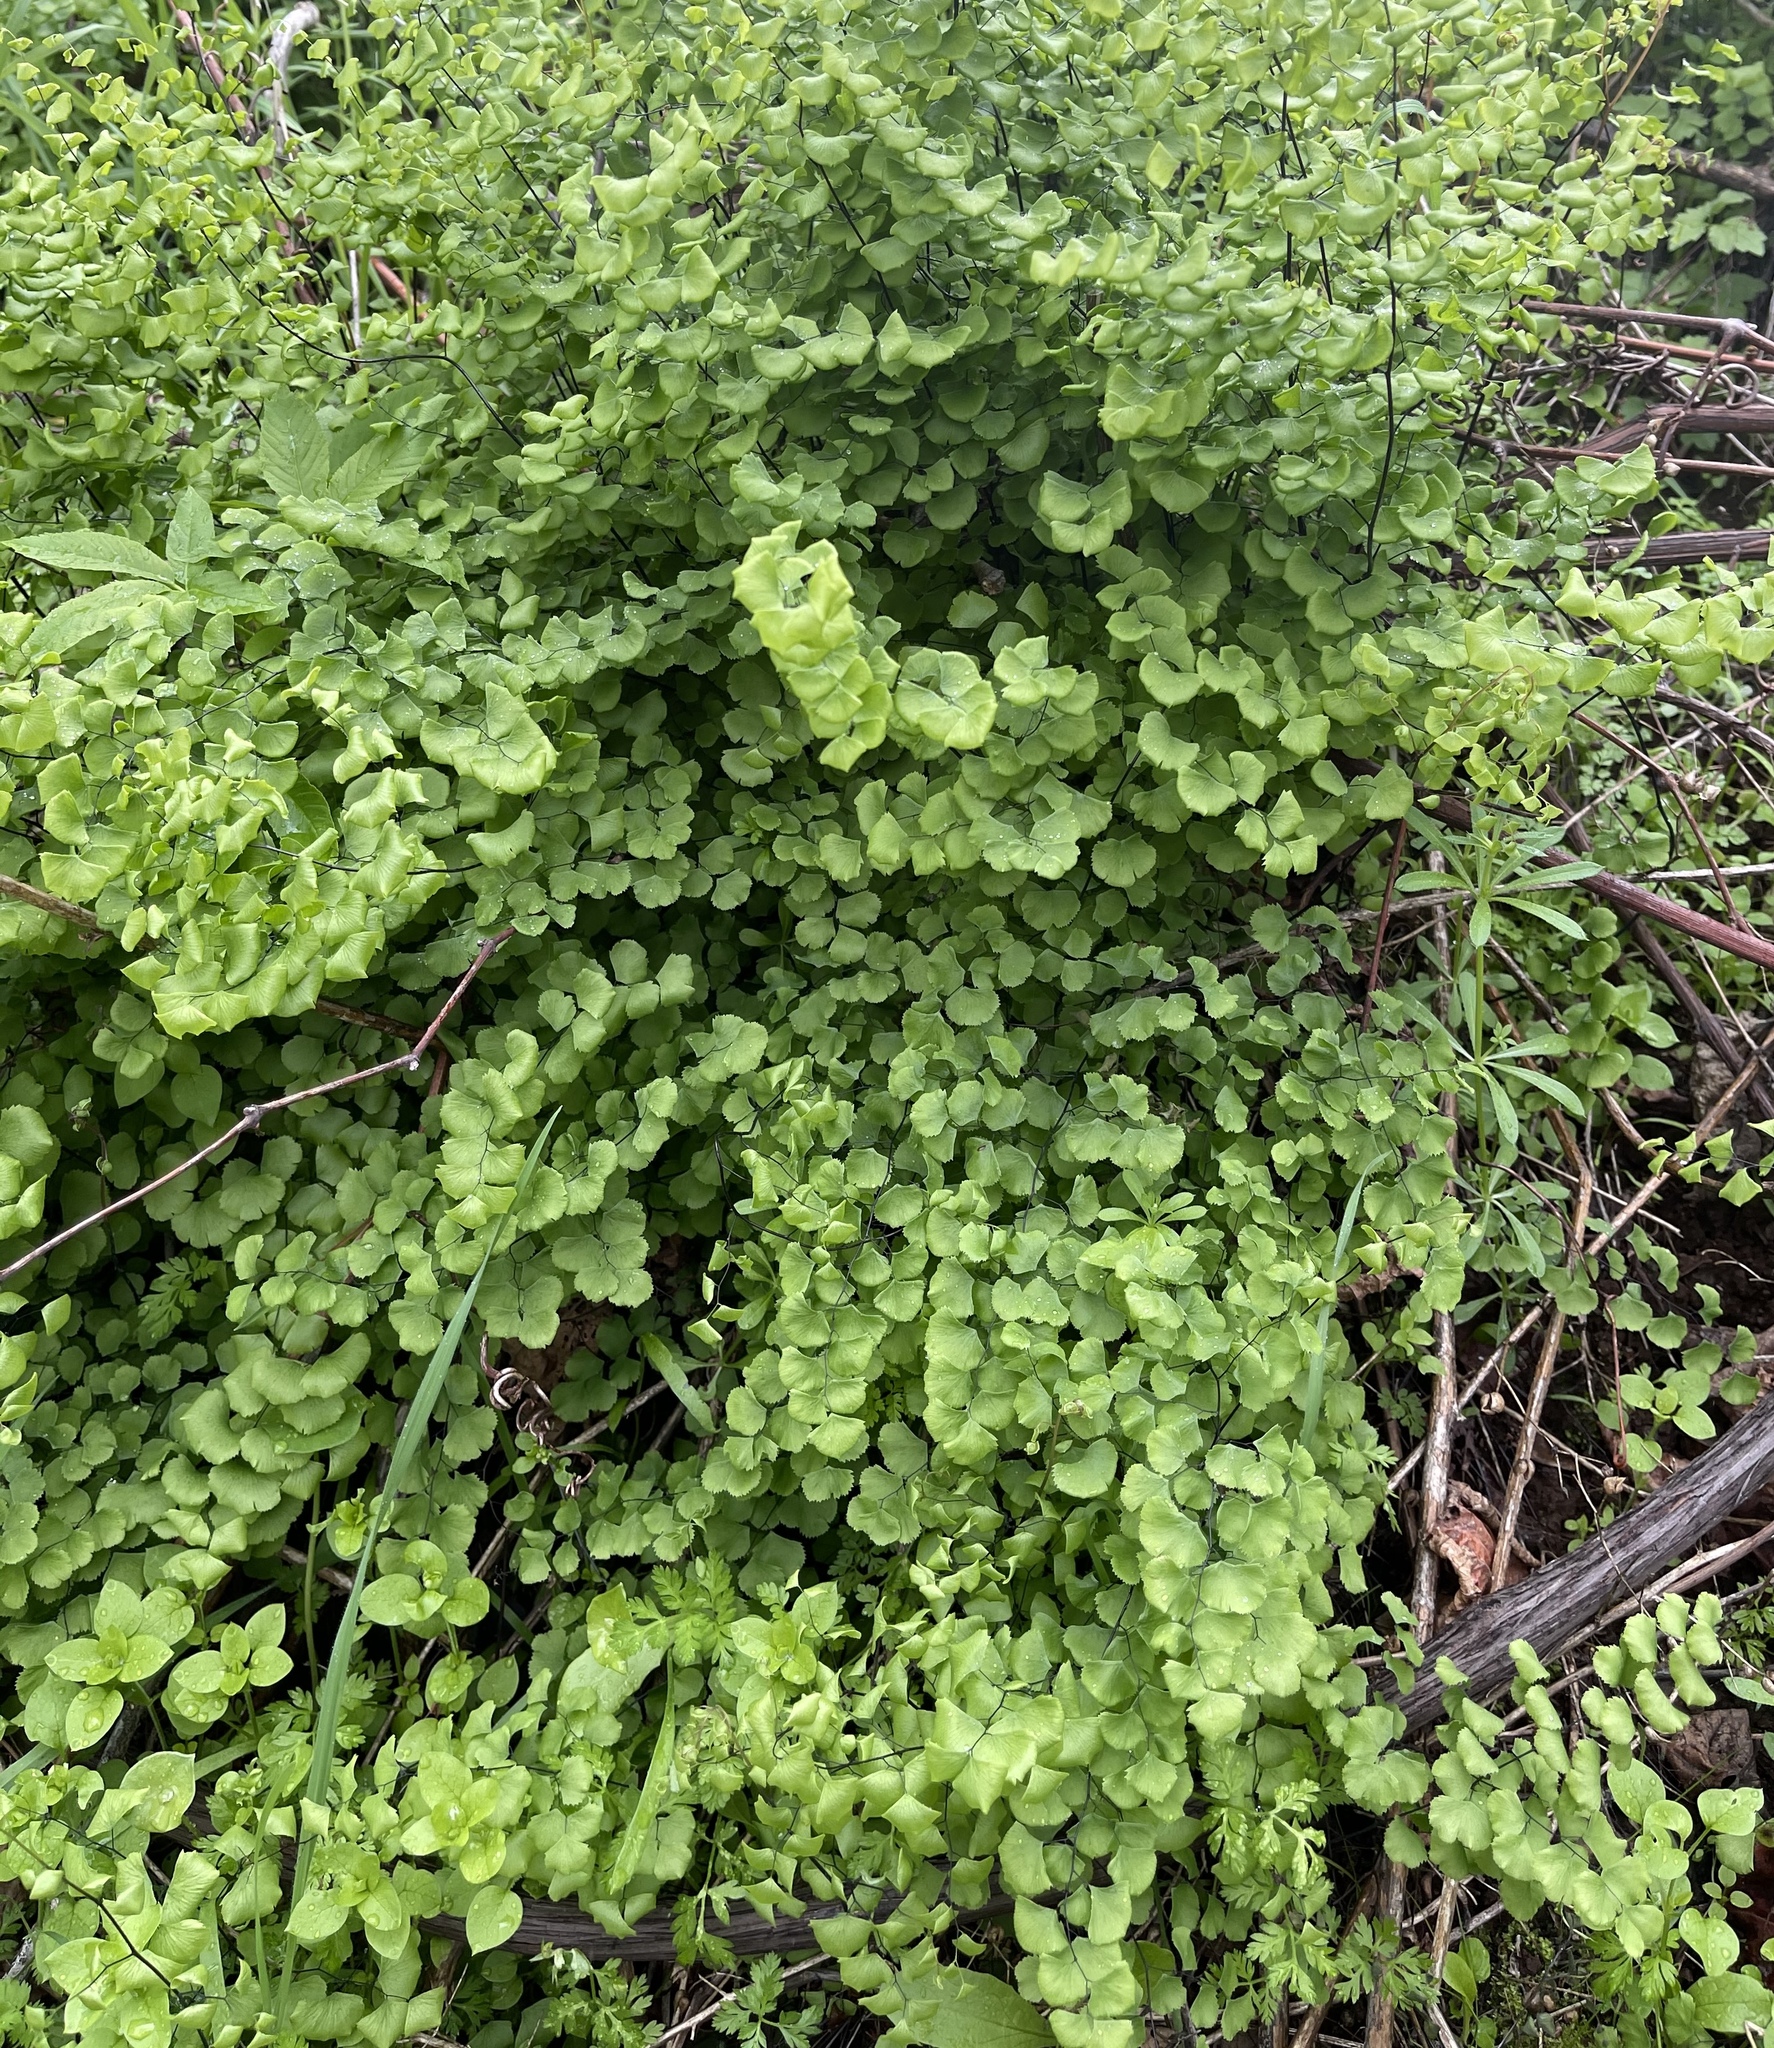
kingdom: Plantae
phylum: Tracheophyta
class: Polypodiopsida
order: Polypodiales
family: Pteridaceae
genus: Adiantum
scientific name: Adiantum jordanii
